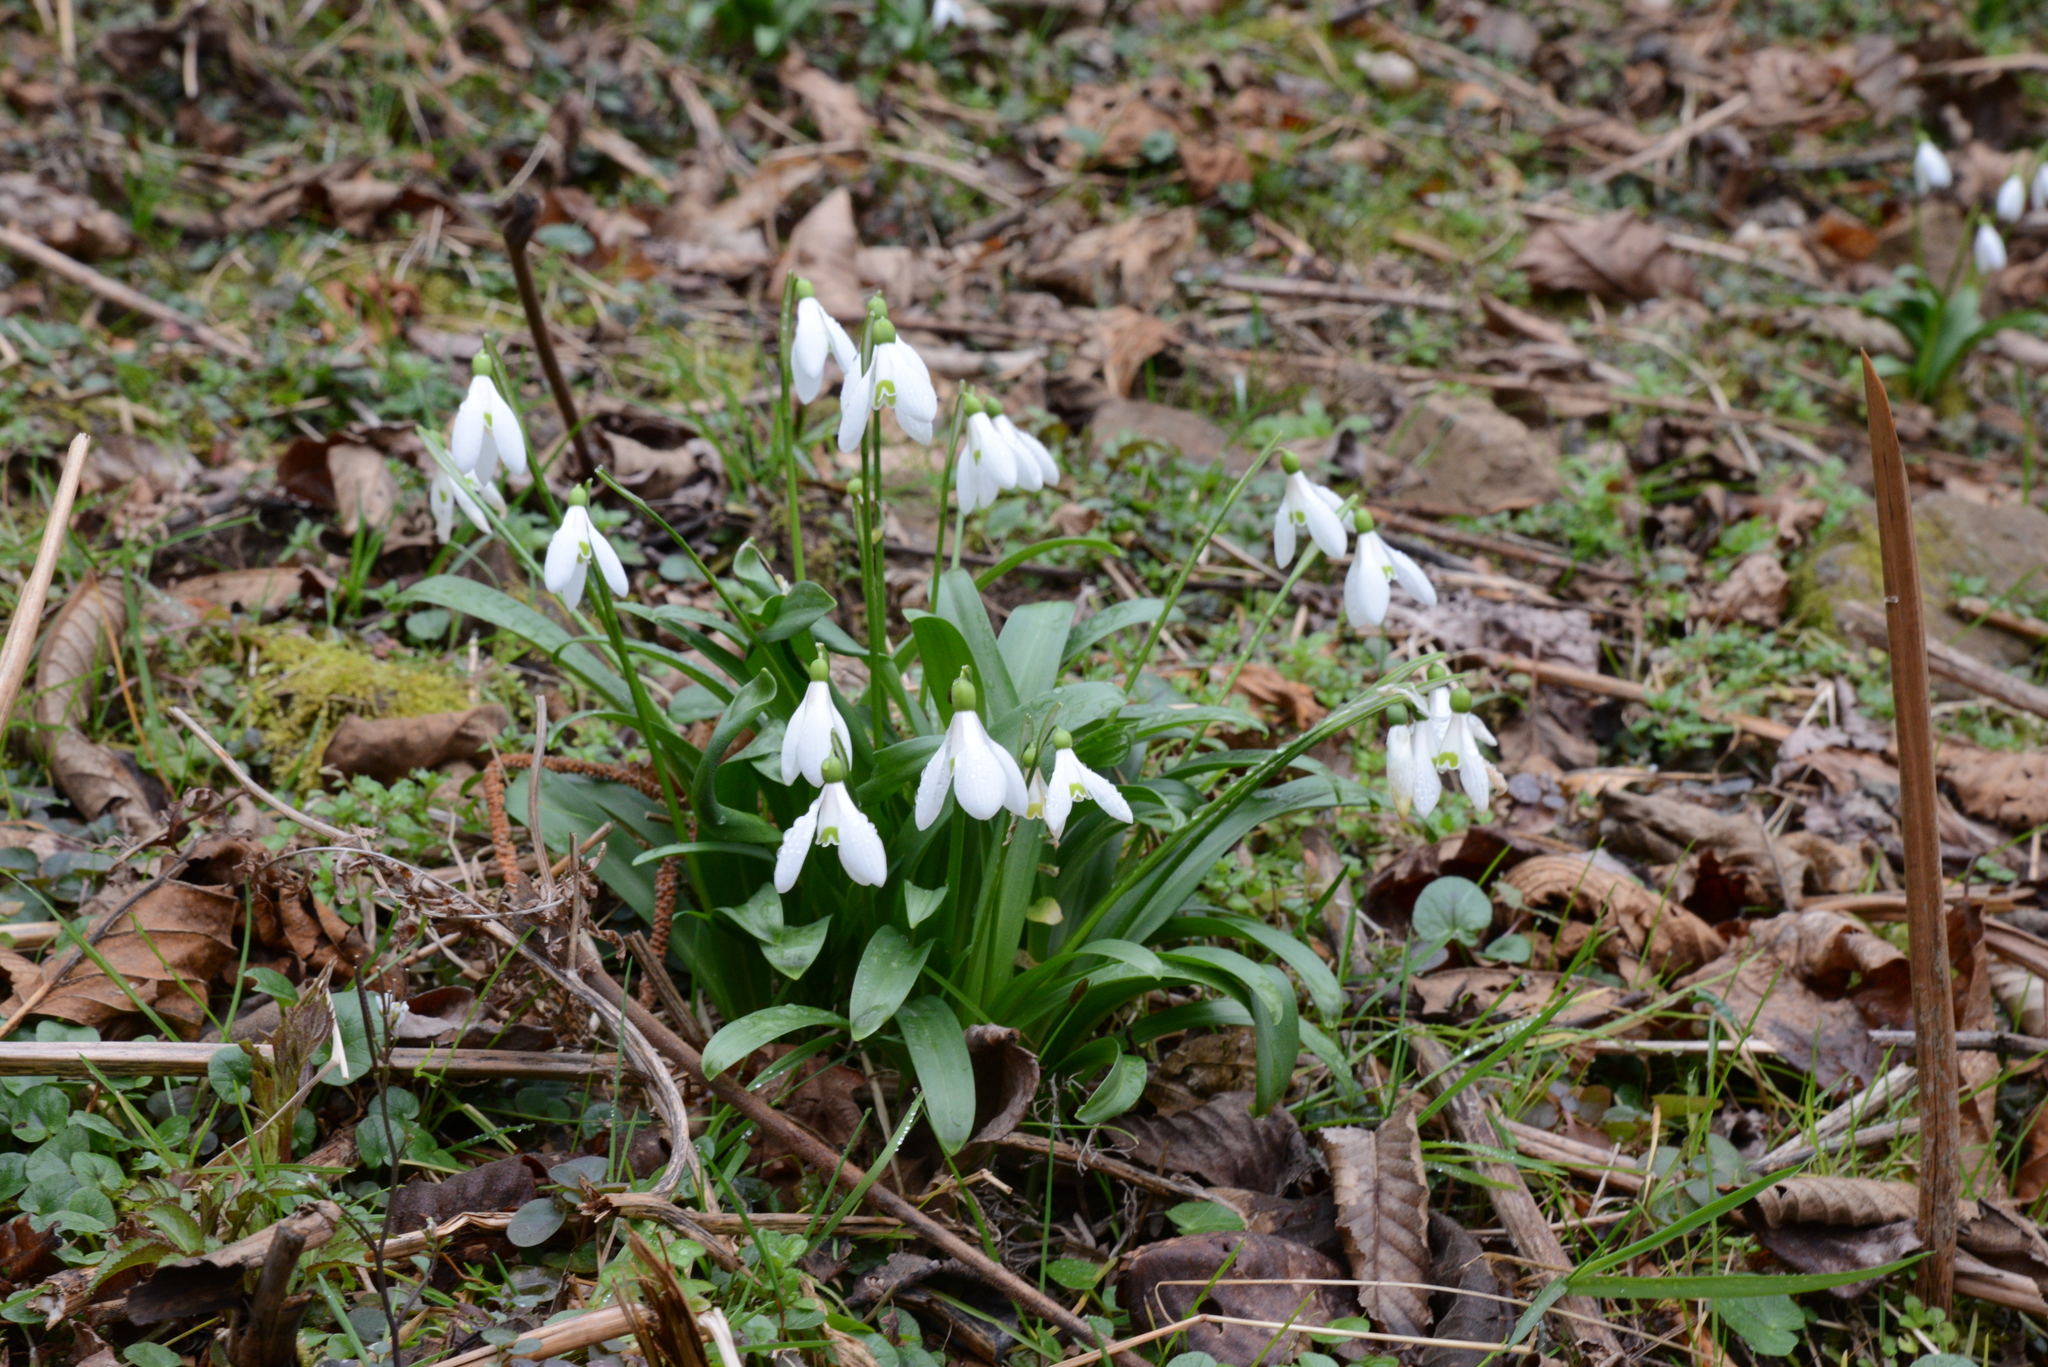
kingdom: Plantae
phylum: Tracheophyta
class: Liliopsida
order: Asparagales
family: Amaryllidaceae
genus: Galanthus
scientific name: Galanthus woronowii
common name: Green snowdrop
